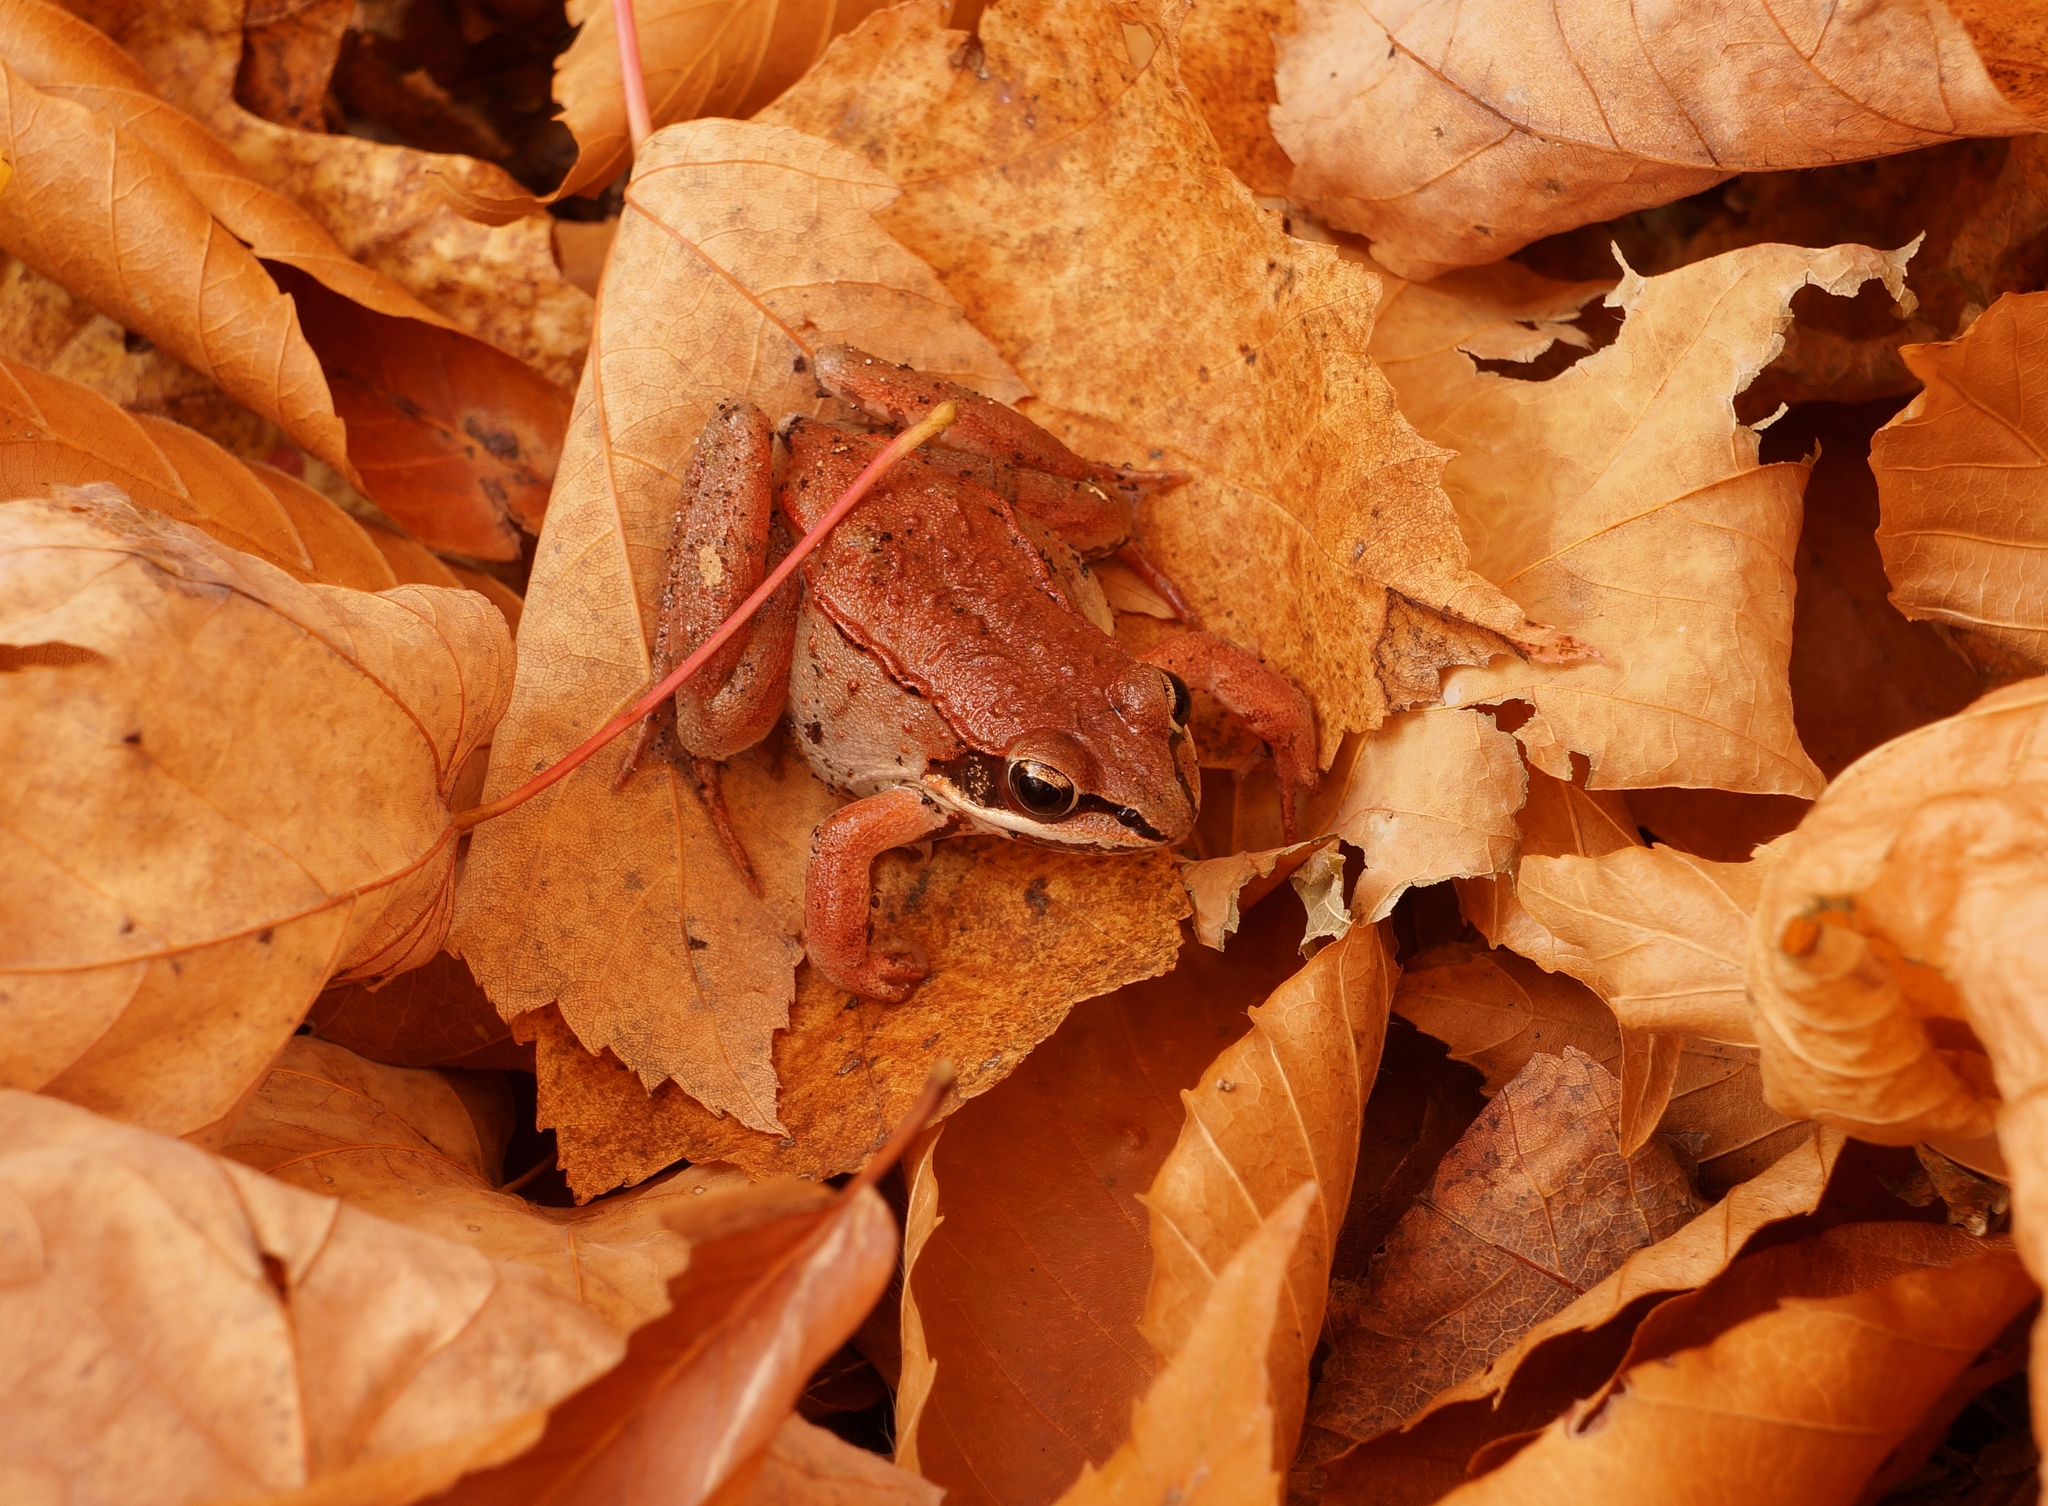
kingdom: Animalia
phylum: Chordata
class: Amphibia
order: Anura
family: Ranidae
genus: Lithobates
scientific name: Lithobates sylvaticus
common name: Wood frog
